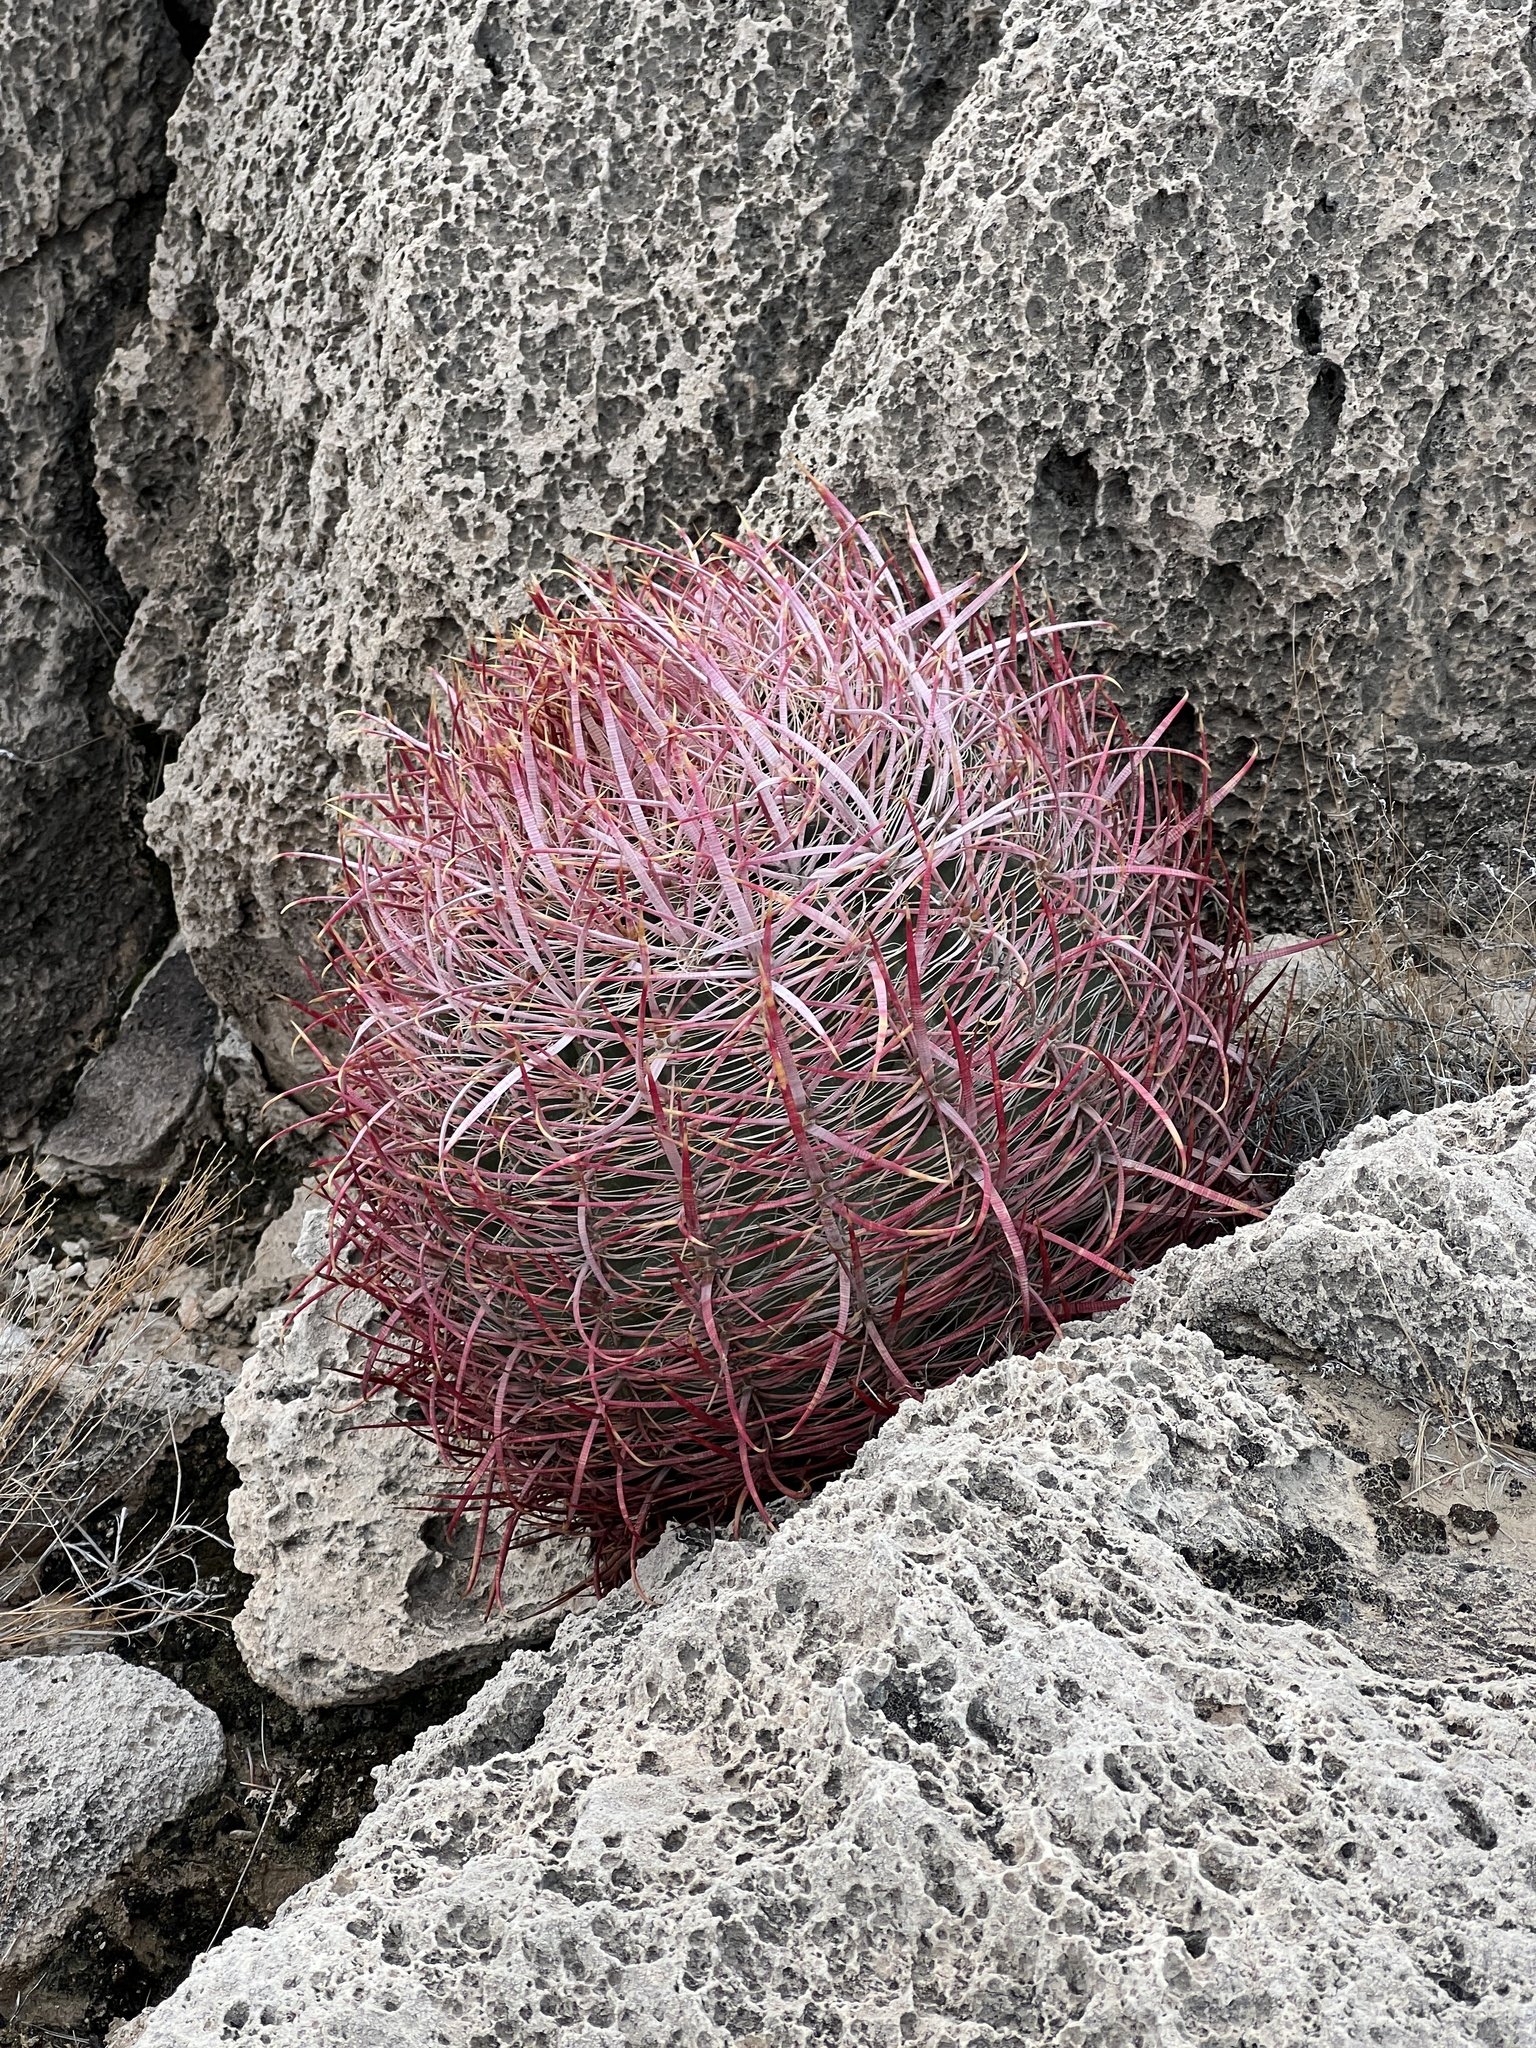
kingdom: Plantae
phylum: Tracheophyta
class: Magnoliopsida
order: Caryophyllales
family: Cactaceae
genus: Ferocactus
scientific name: Ferocactus cylindraceus
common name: California barrel cactus
